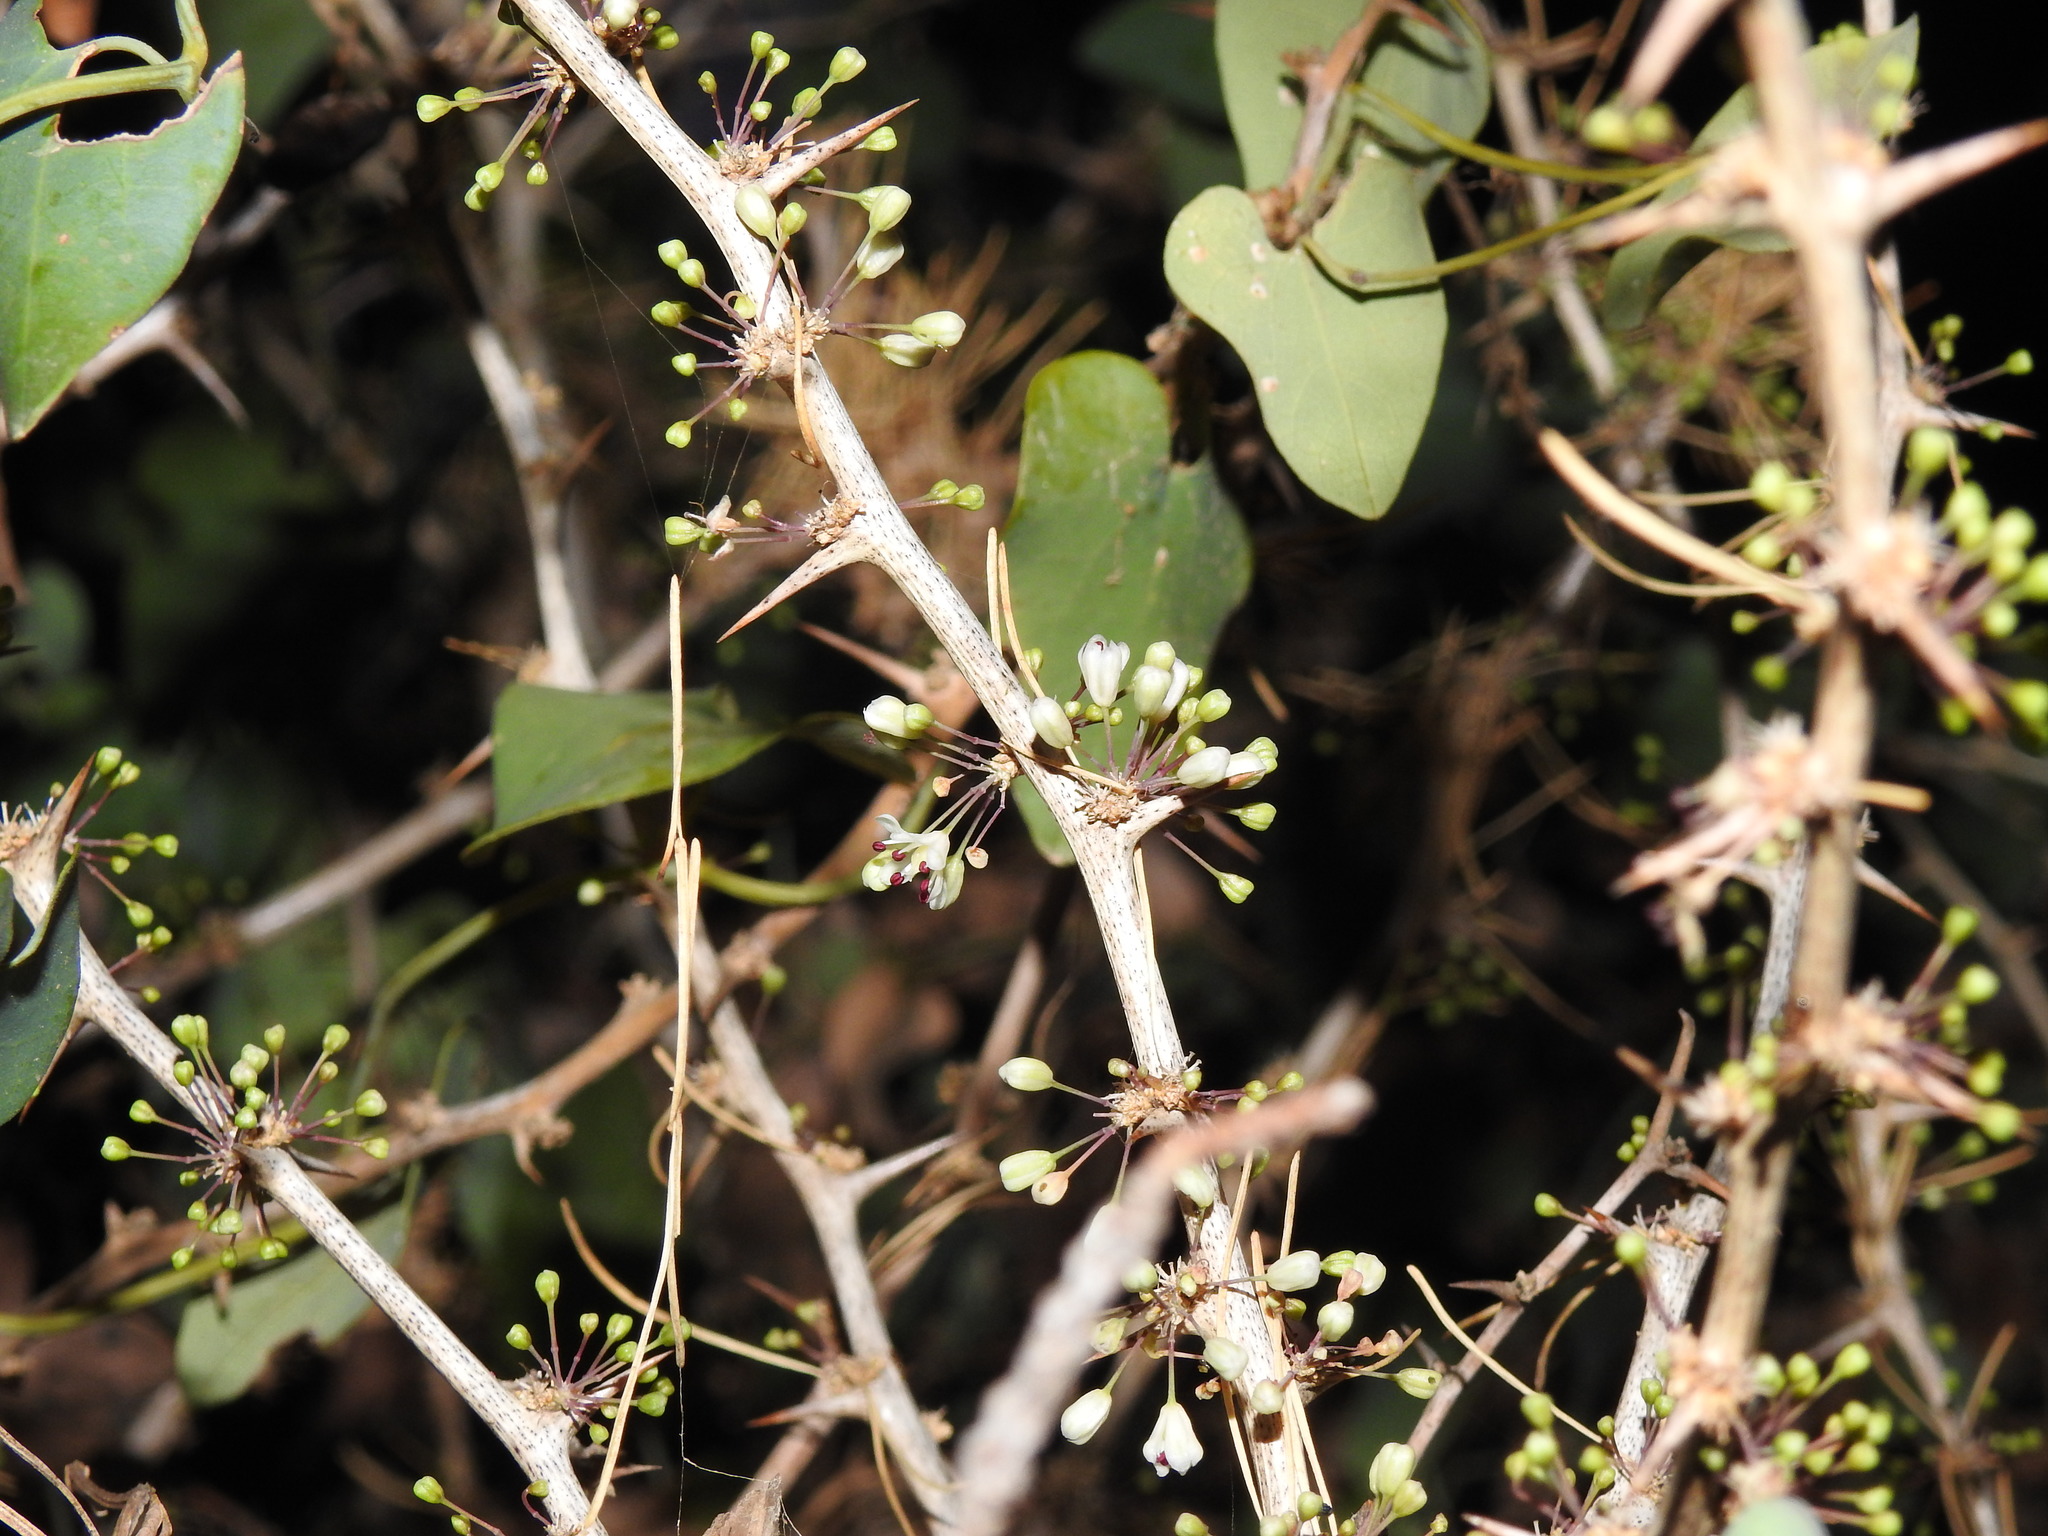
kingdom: Plantae
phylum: Tracheophyta
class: Liliopsida
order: Asparagales
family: Asparagaceae
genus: Asparagus
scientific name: Asparagus albus
